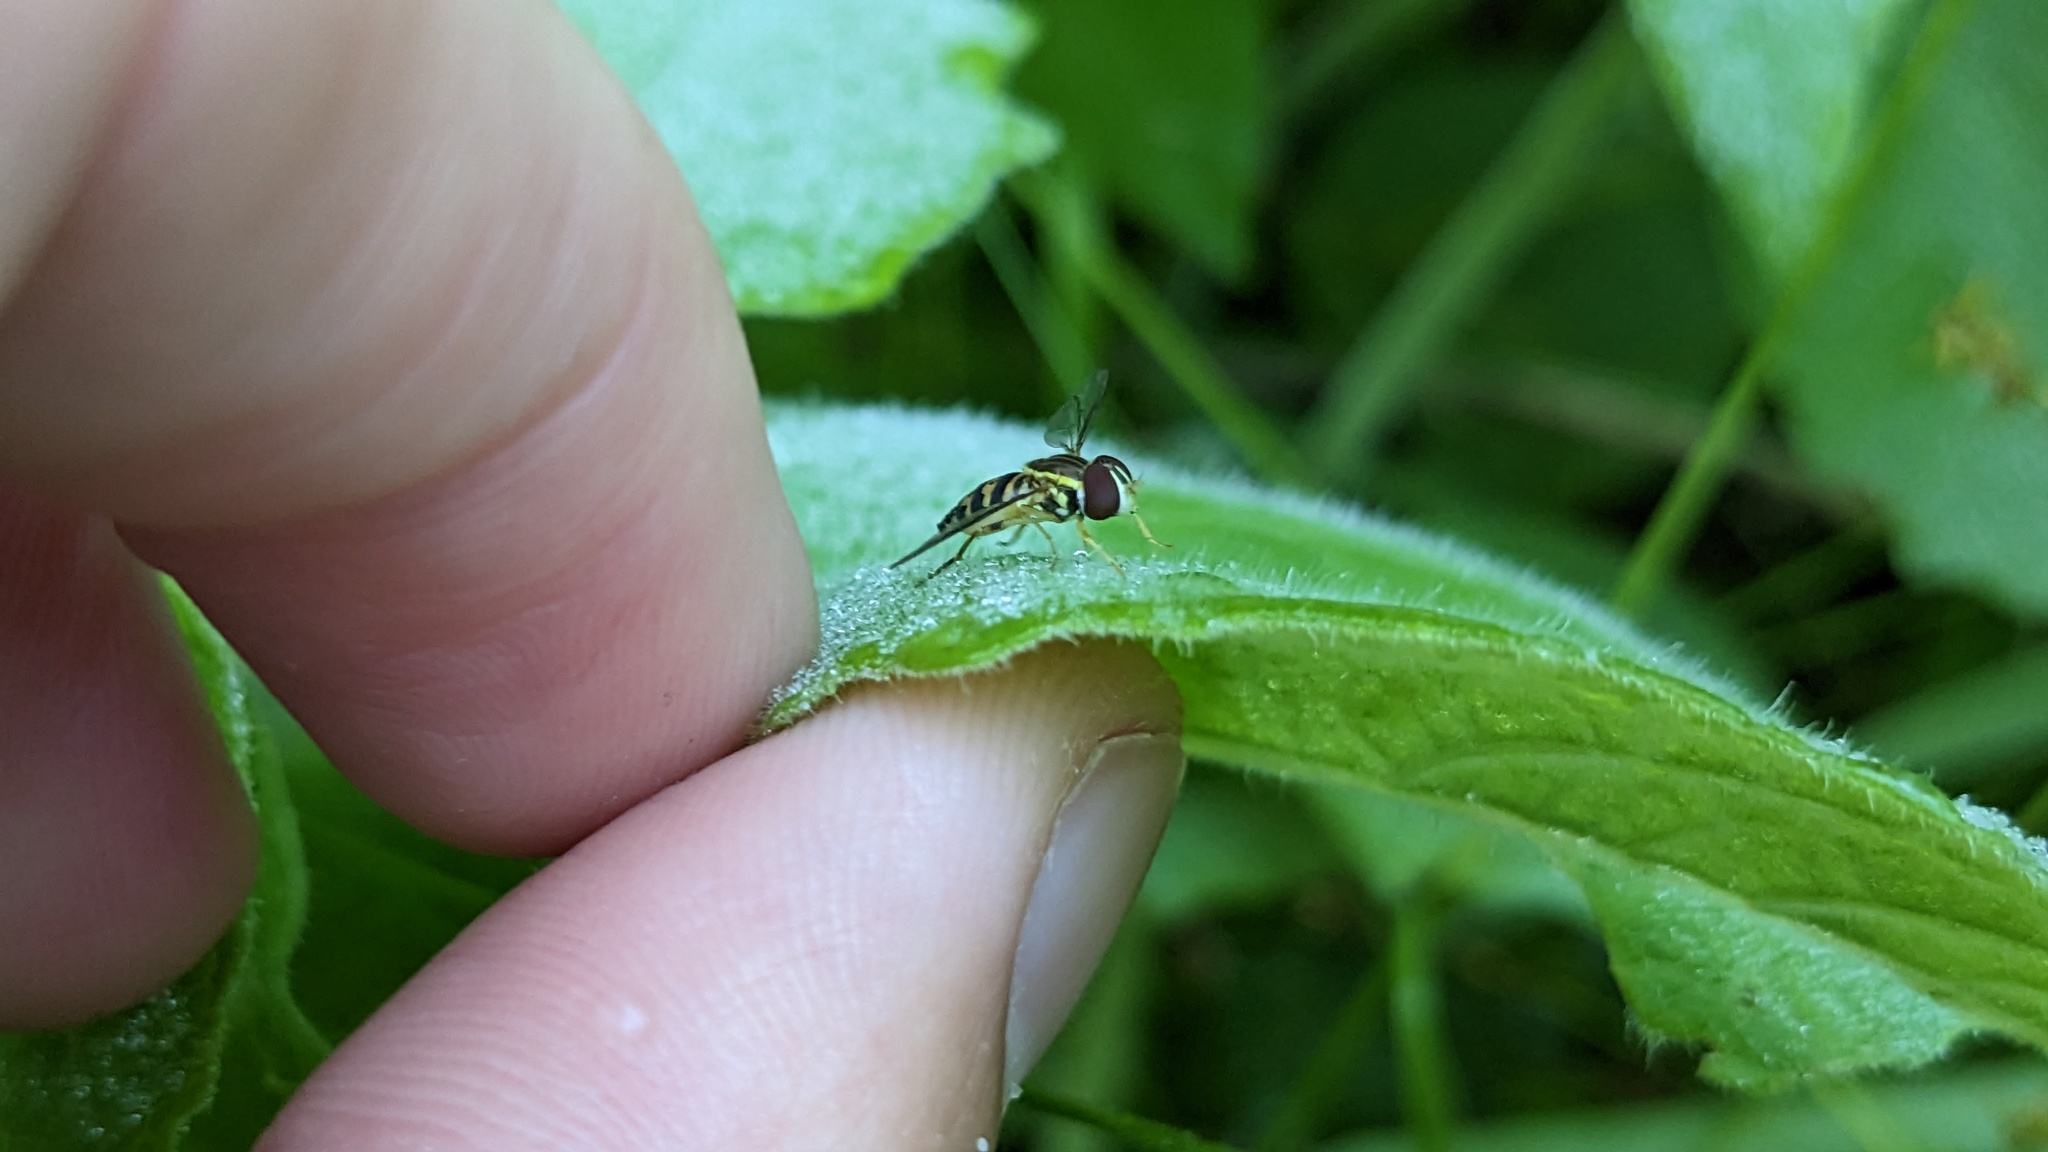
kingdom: Animalia
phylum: Arthropoda
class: Insecta
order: Diptera
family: Syrphidae
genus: Toxomerus
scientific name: Toxomerus geminatus
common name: Eastern calligrapher
